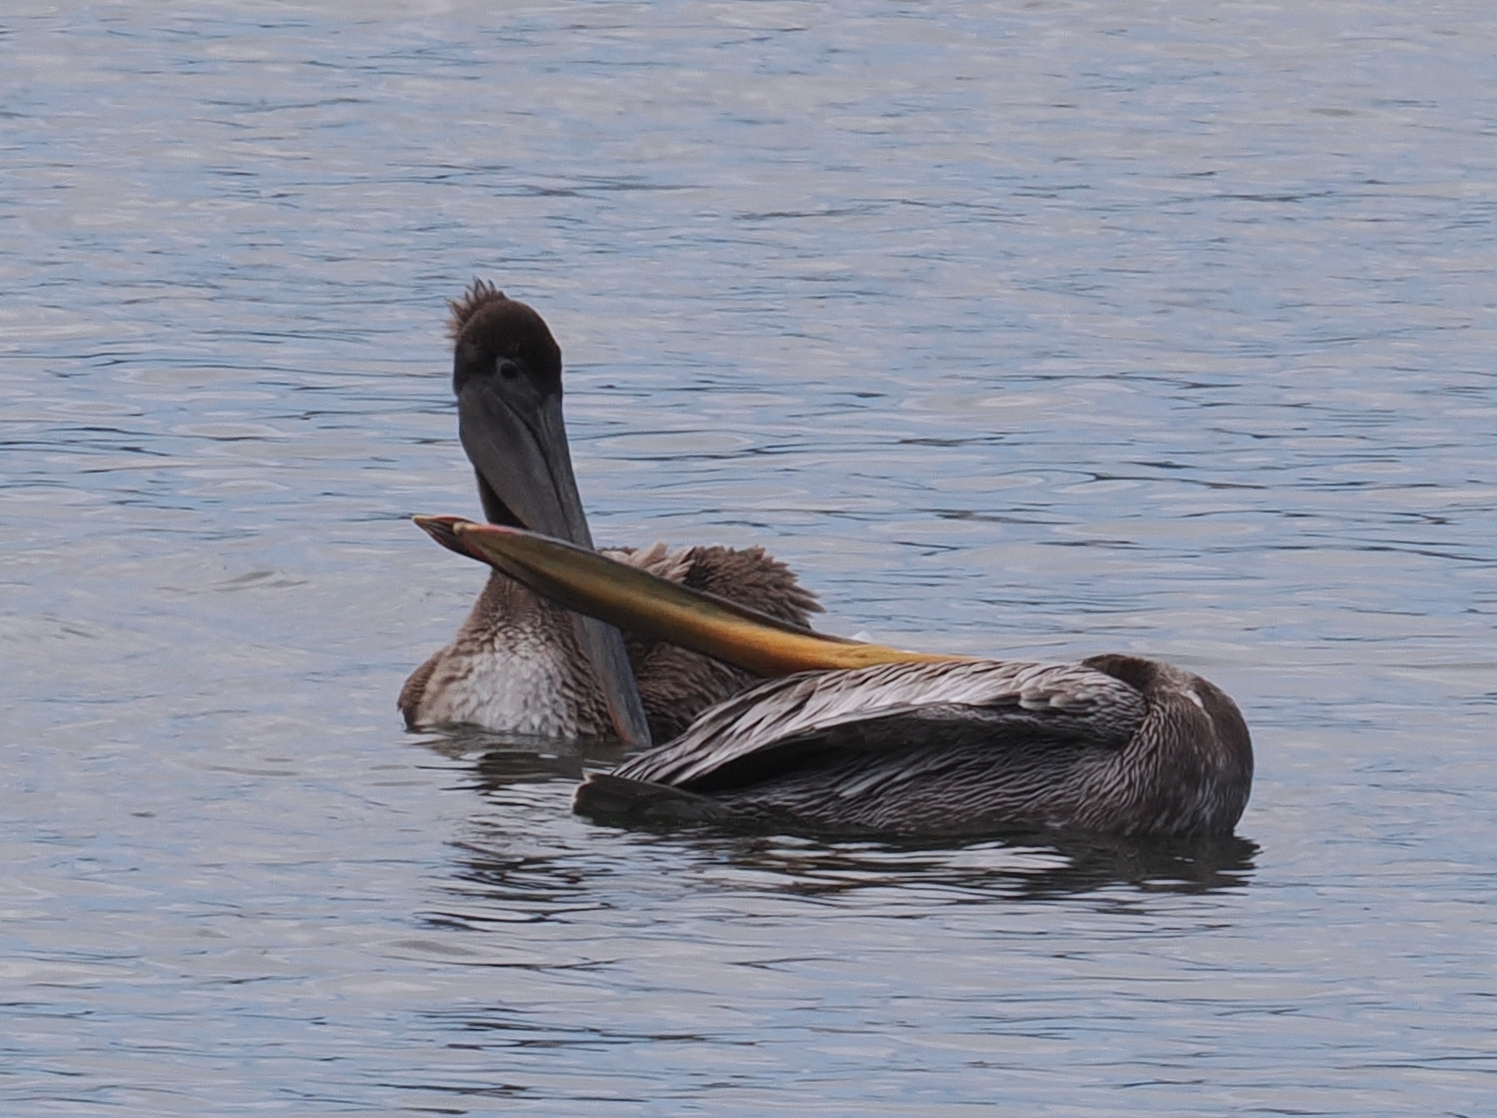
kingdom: Animalia
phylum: Chordata
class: Aves
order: Pelecaniformes
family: Pelecanidae
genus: Pelecanus
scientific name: Pelecanus occidentalis
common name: Brown pelican
